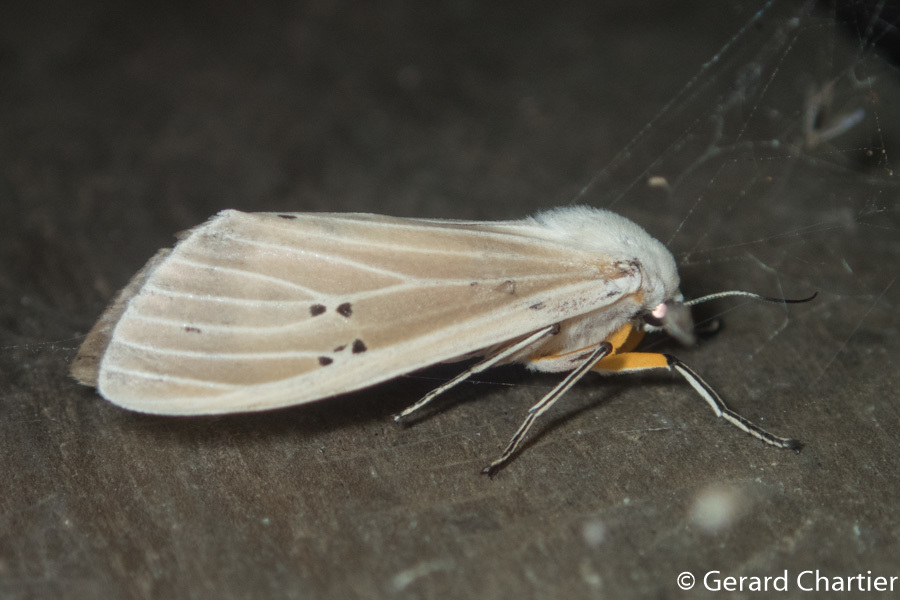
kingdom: Animalia
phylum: Arthropoda
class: Insecta
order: Lepidoptera
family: Erebidae
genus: Creatonotos
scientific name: Creatonotos transiens
